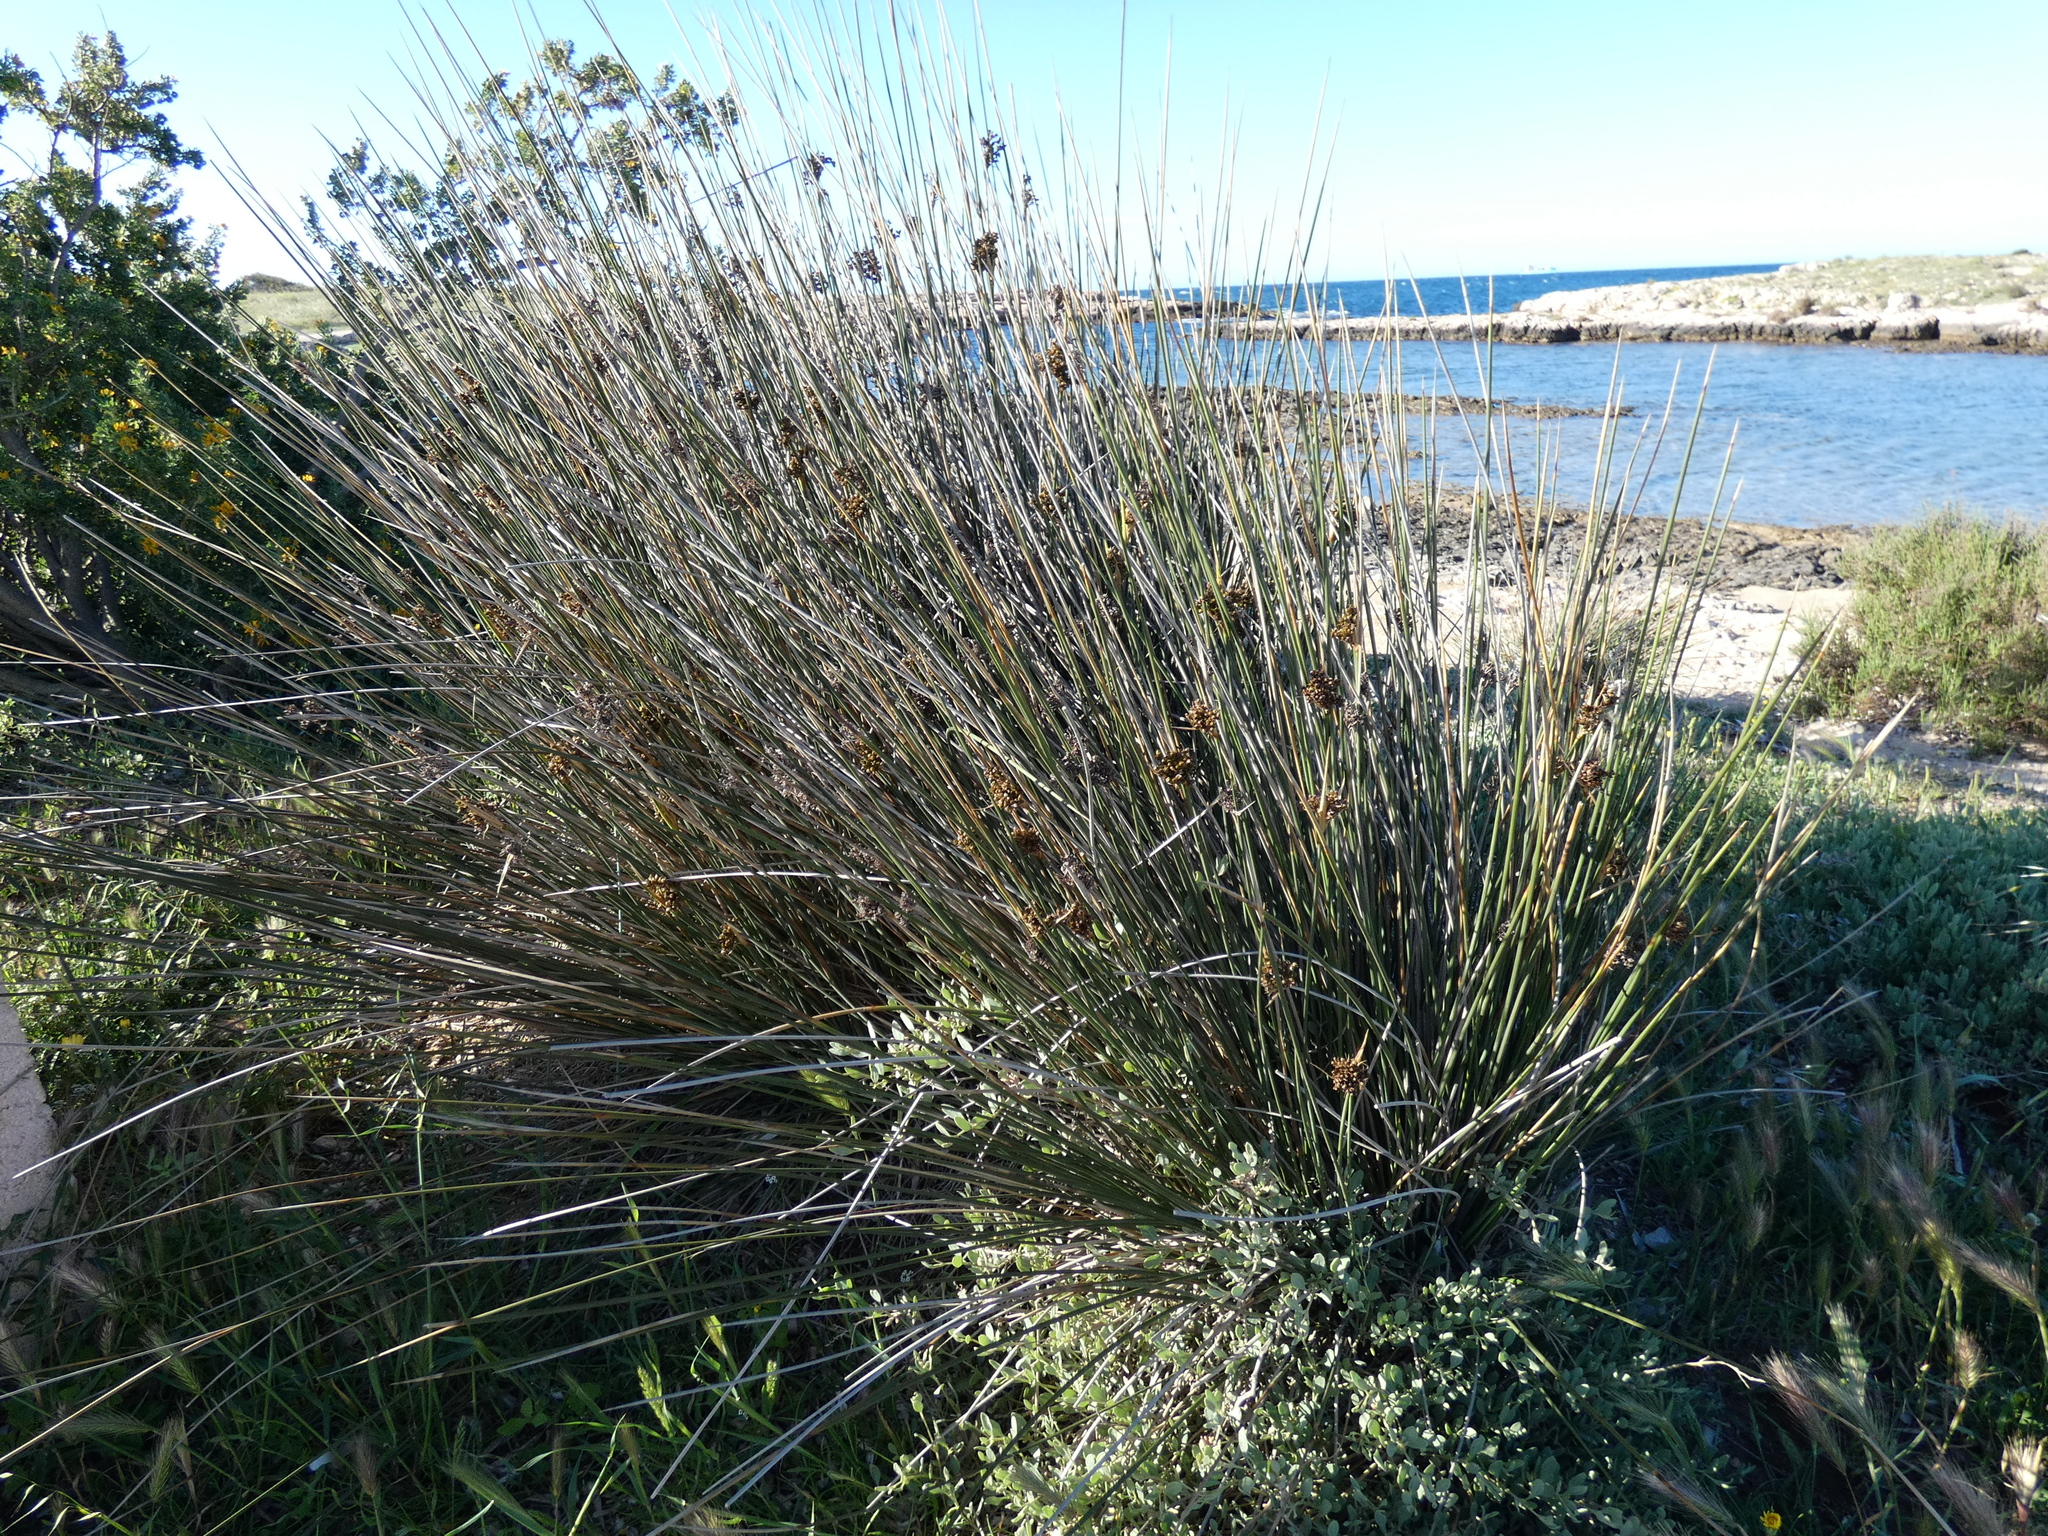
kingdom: Plantae
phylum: Tracheophyta
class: Liliopsida
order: Poales
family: Juncaceae
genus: Juncus
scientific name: Juncus acutus
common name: Sharp rush
